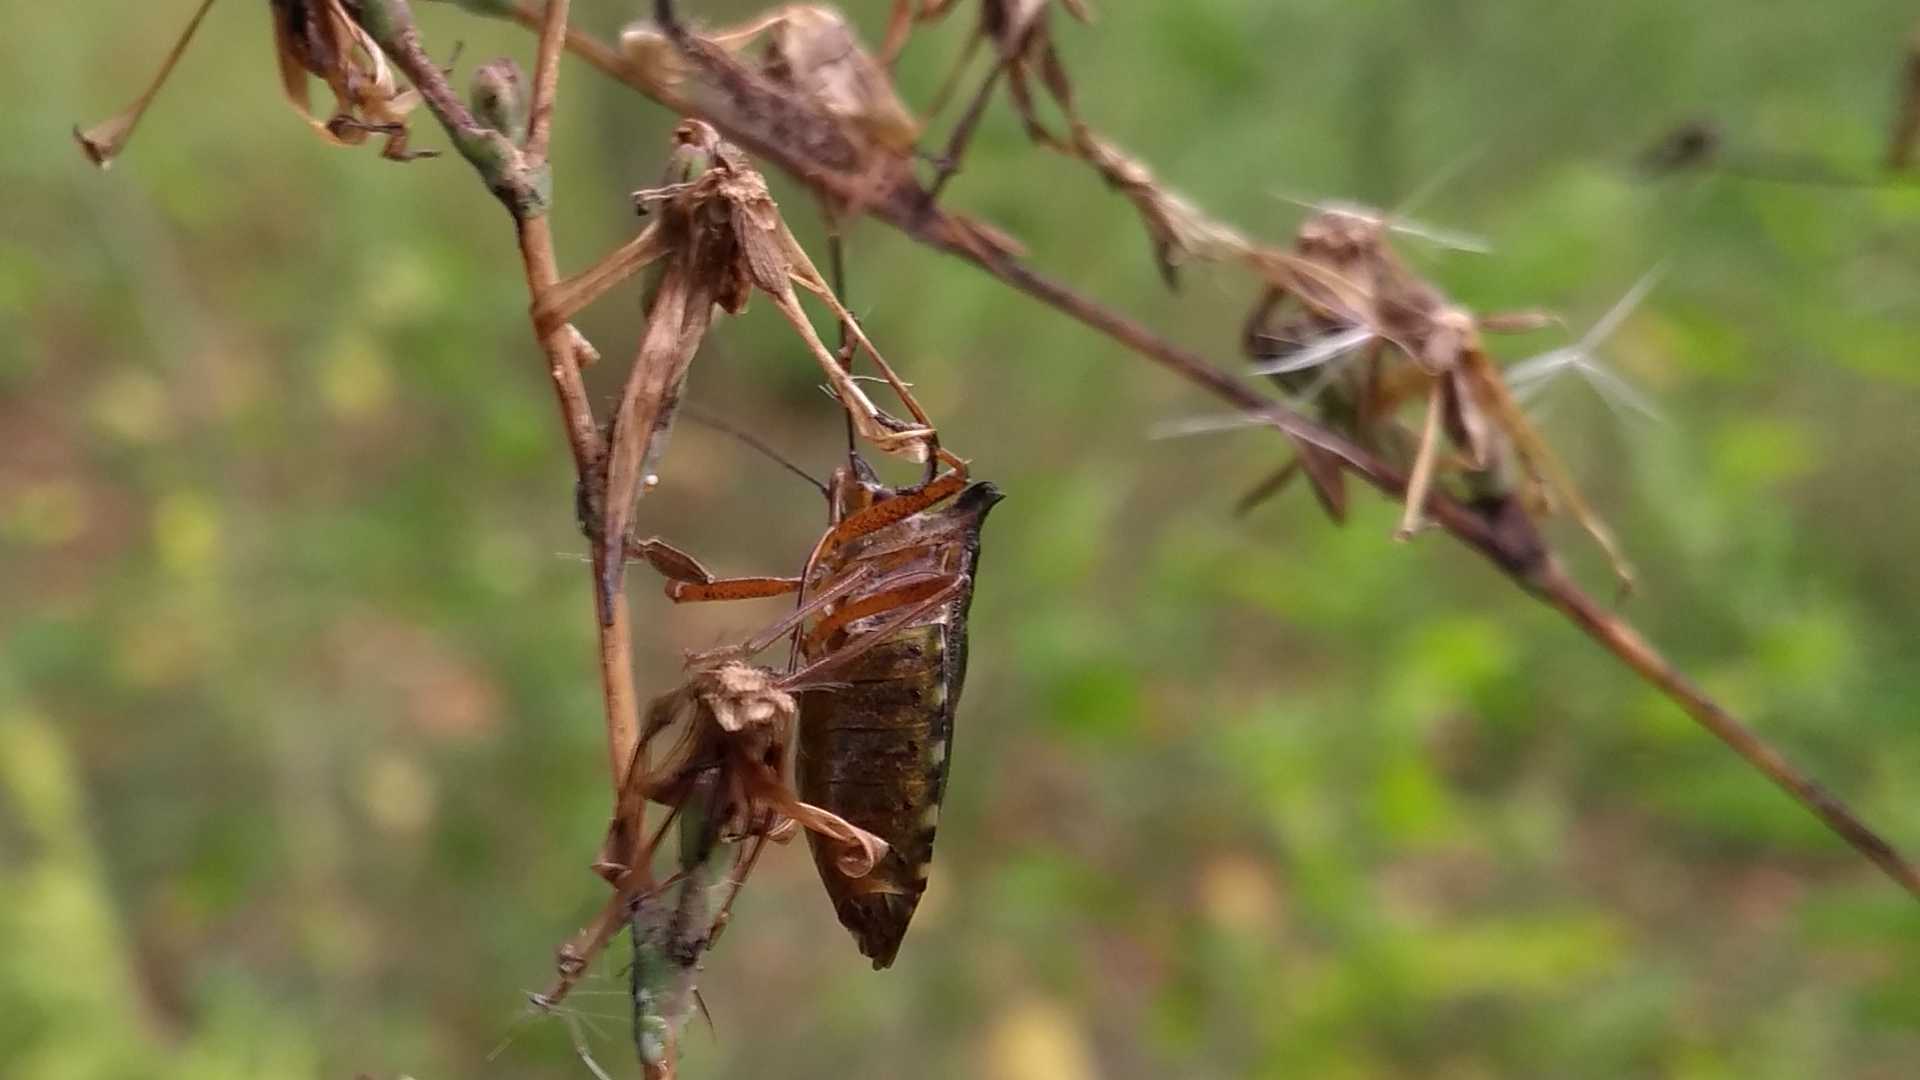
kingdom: Animalia
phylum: Arthropoda
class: Insecta
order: Hemiptera
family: Pentatomidae
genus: Pentatoma
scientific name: Pentatoma rufipes
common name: Forest bug
